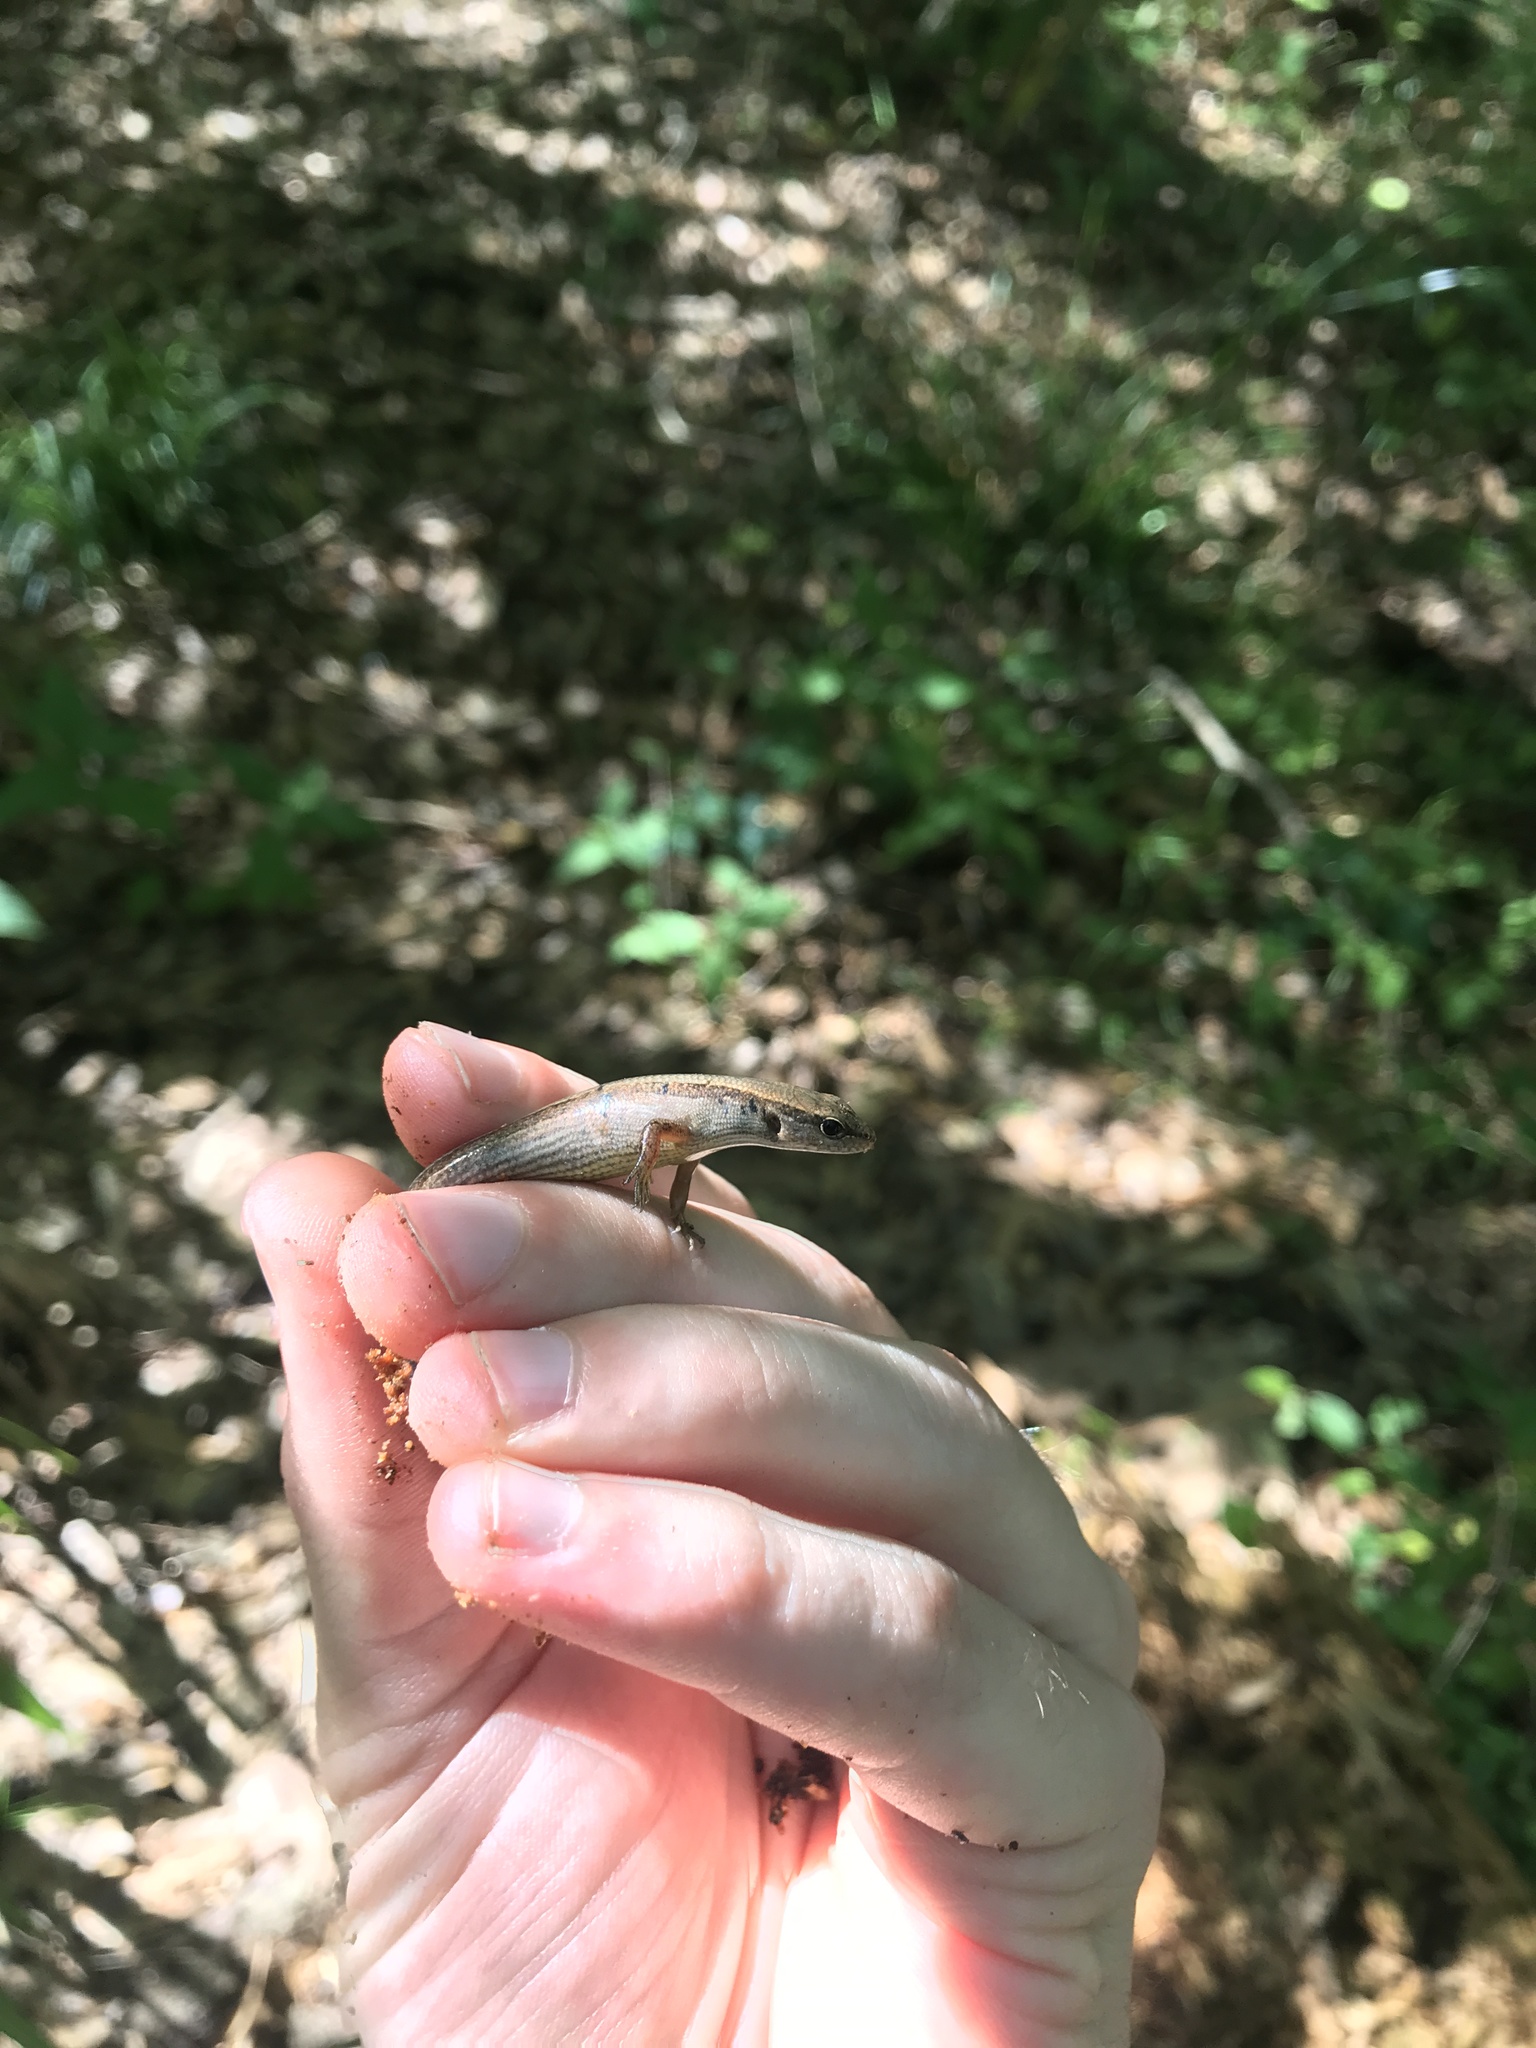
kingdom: Animalia
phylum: Chordata
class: Squamata
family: Scincidae
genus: Scincella
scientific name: Scincella lateralis
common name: Ground skink
